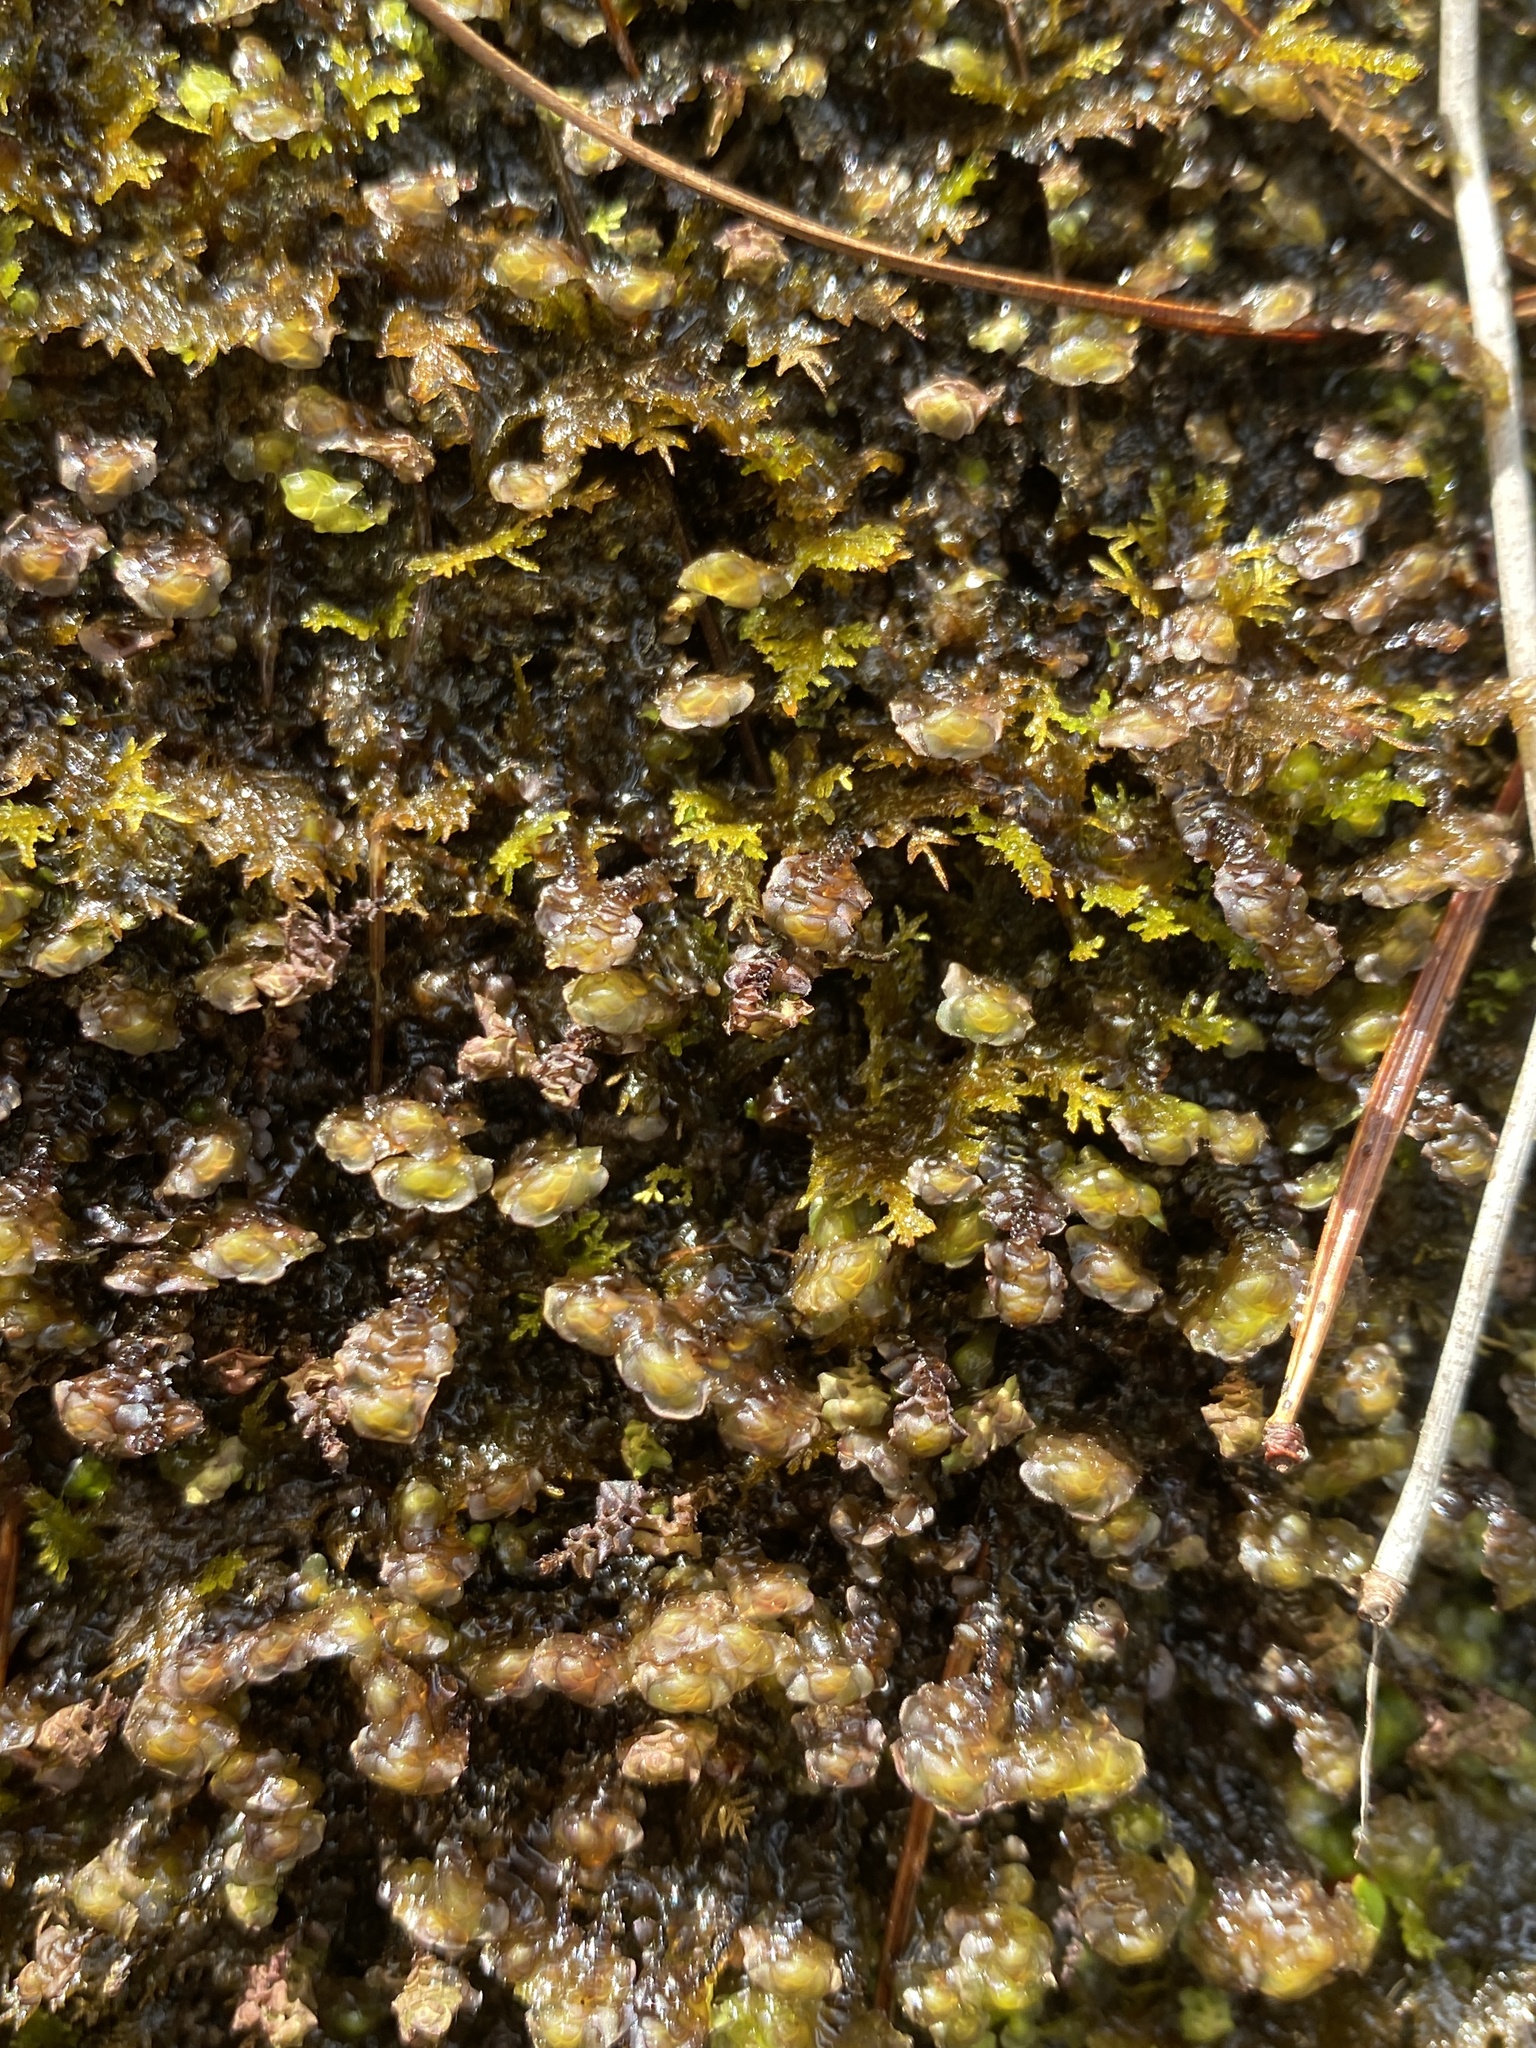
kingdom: Plantae
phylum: Marchantiophyta
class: Jungermanniopsida
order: Jungermanniales
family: Scapaniaceae
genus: Scapania
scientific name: Scapania nemorea
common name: Grove earwort
